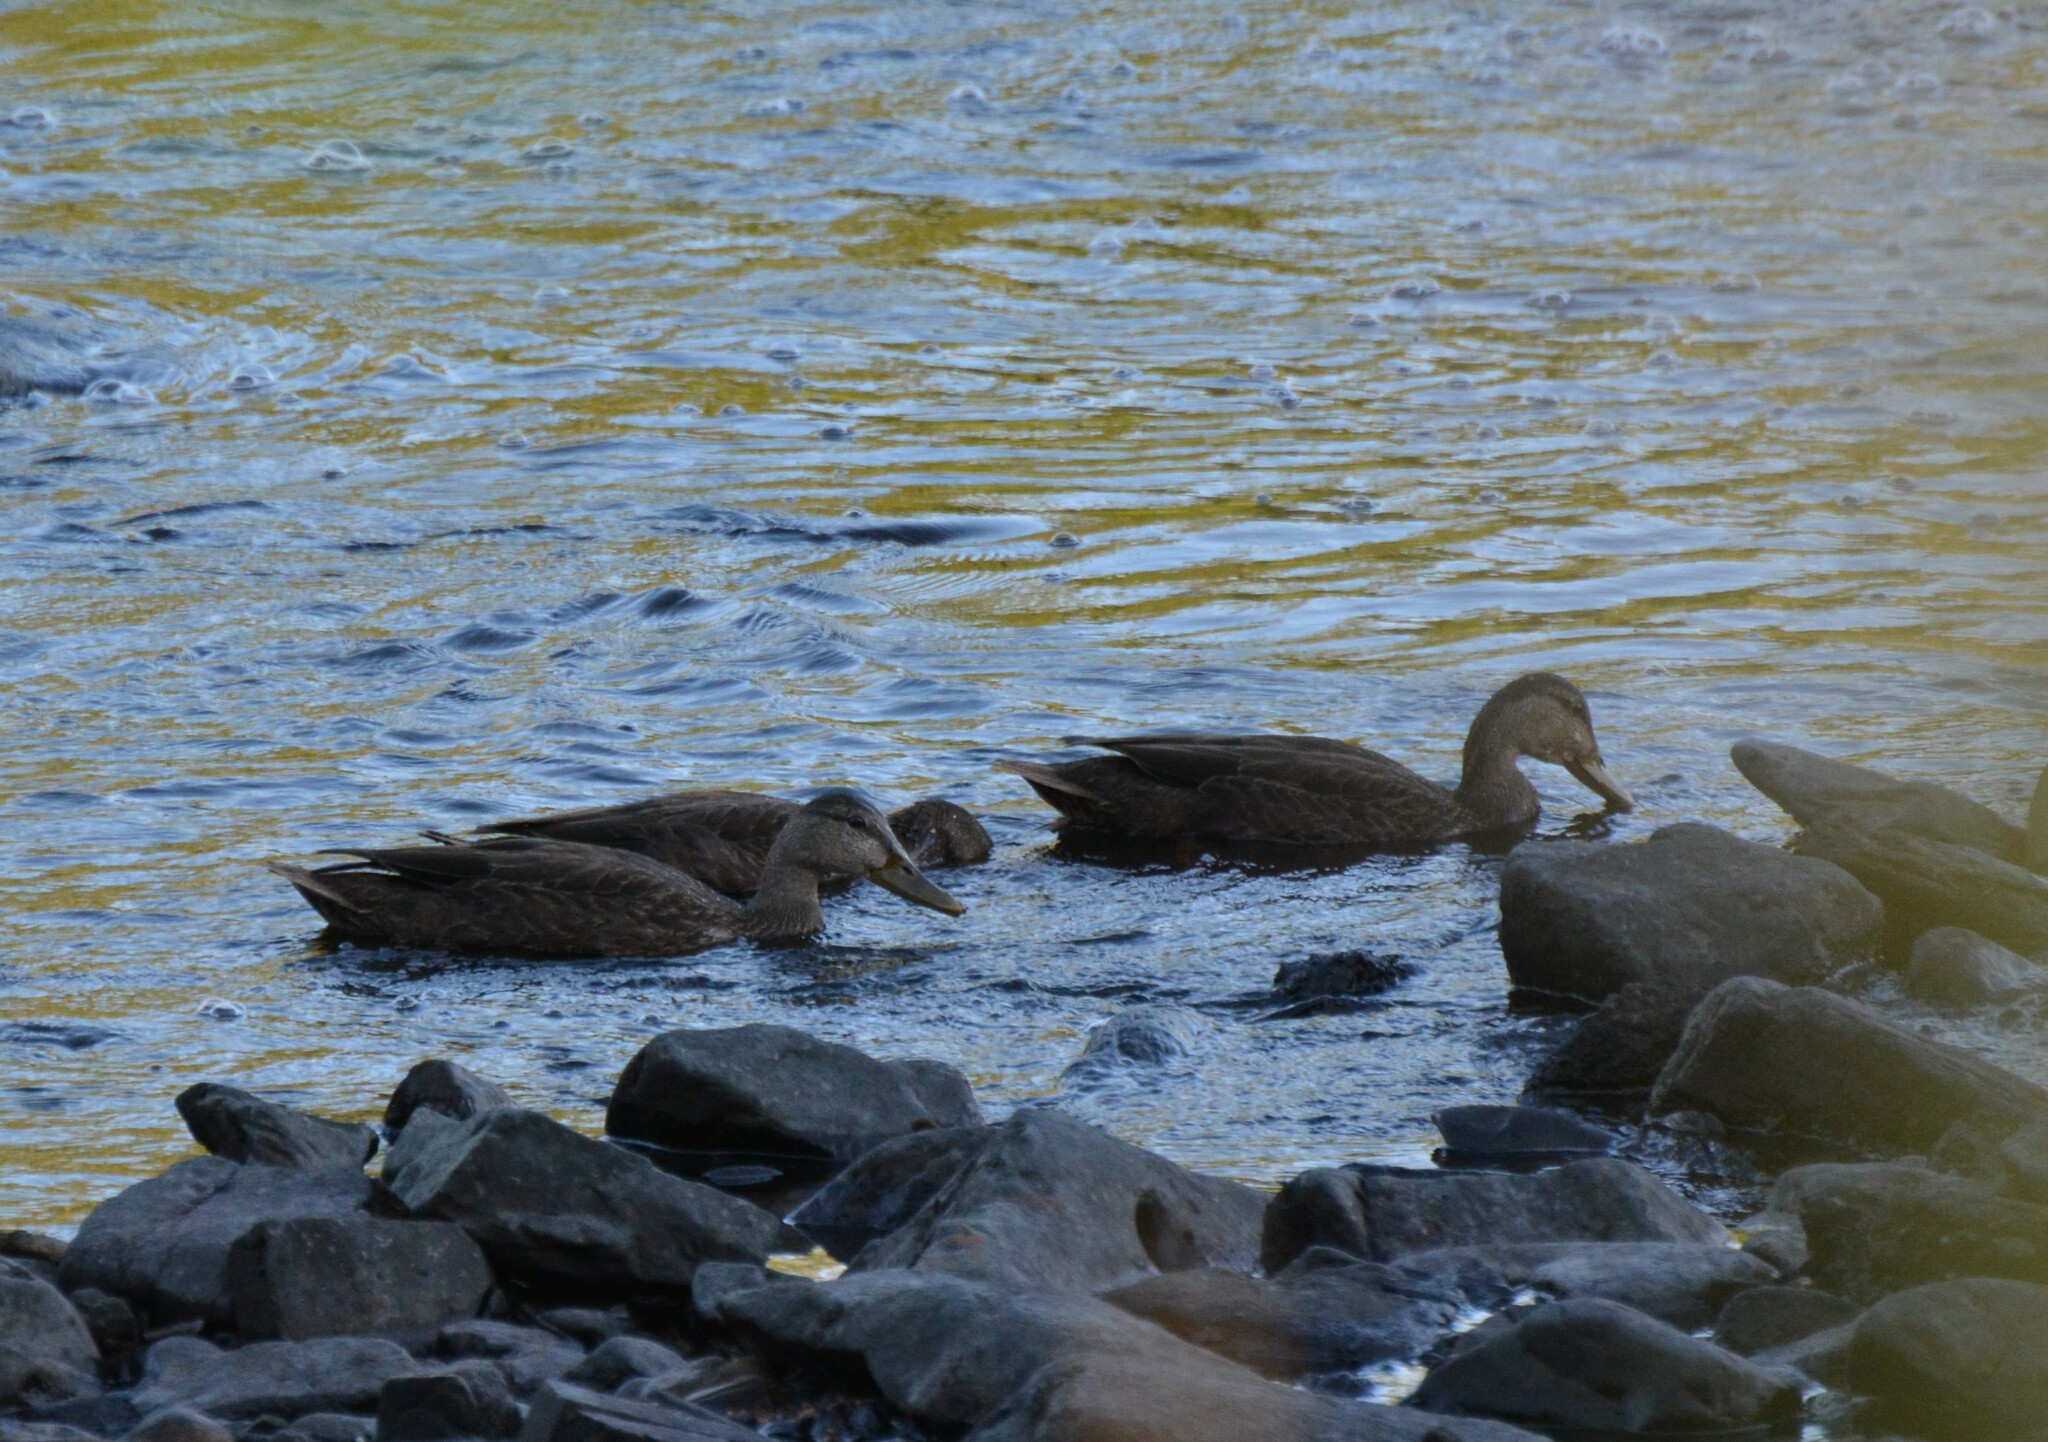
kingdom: Animalia
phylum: Chordata
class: Aves
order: Anseriformes
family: Anatidae
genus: Anas
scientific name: Anas rubripes
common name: American black duck
